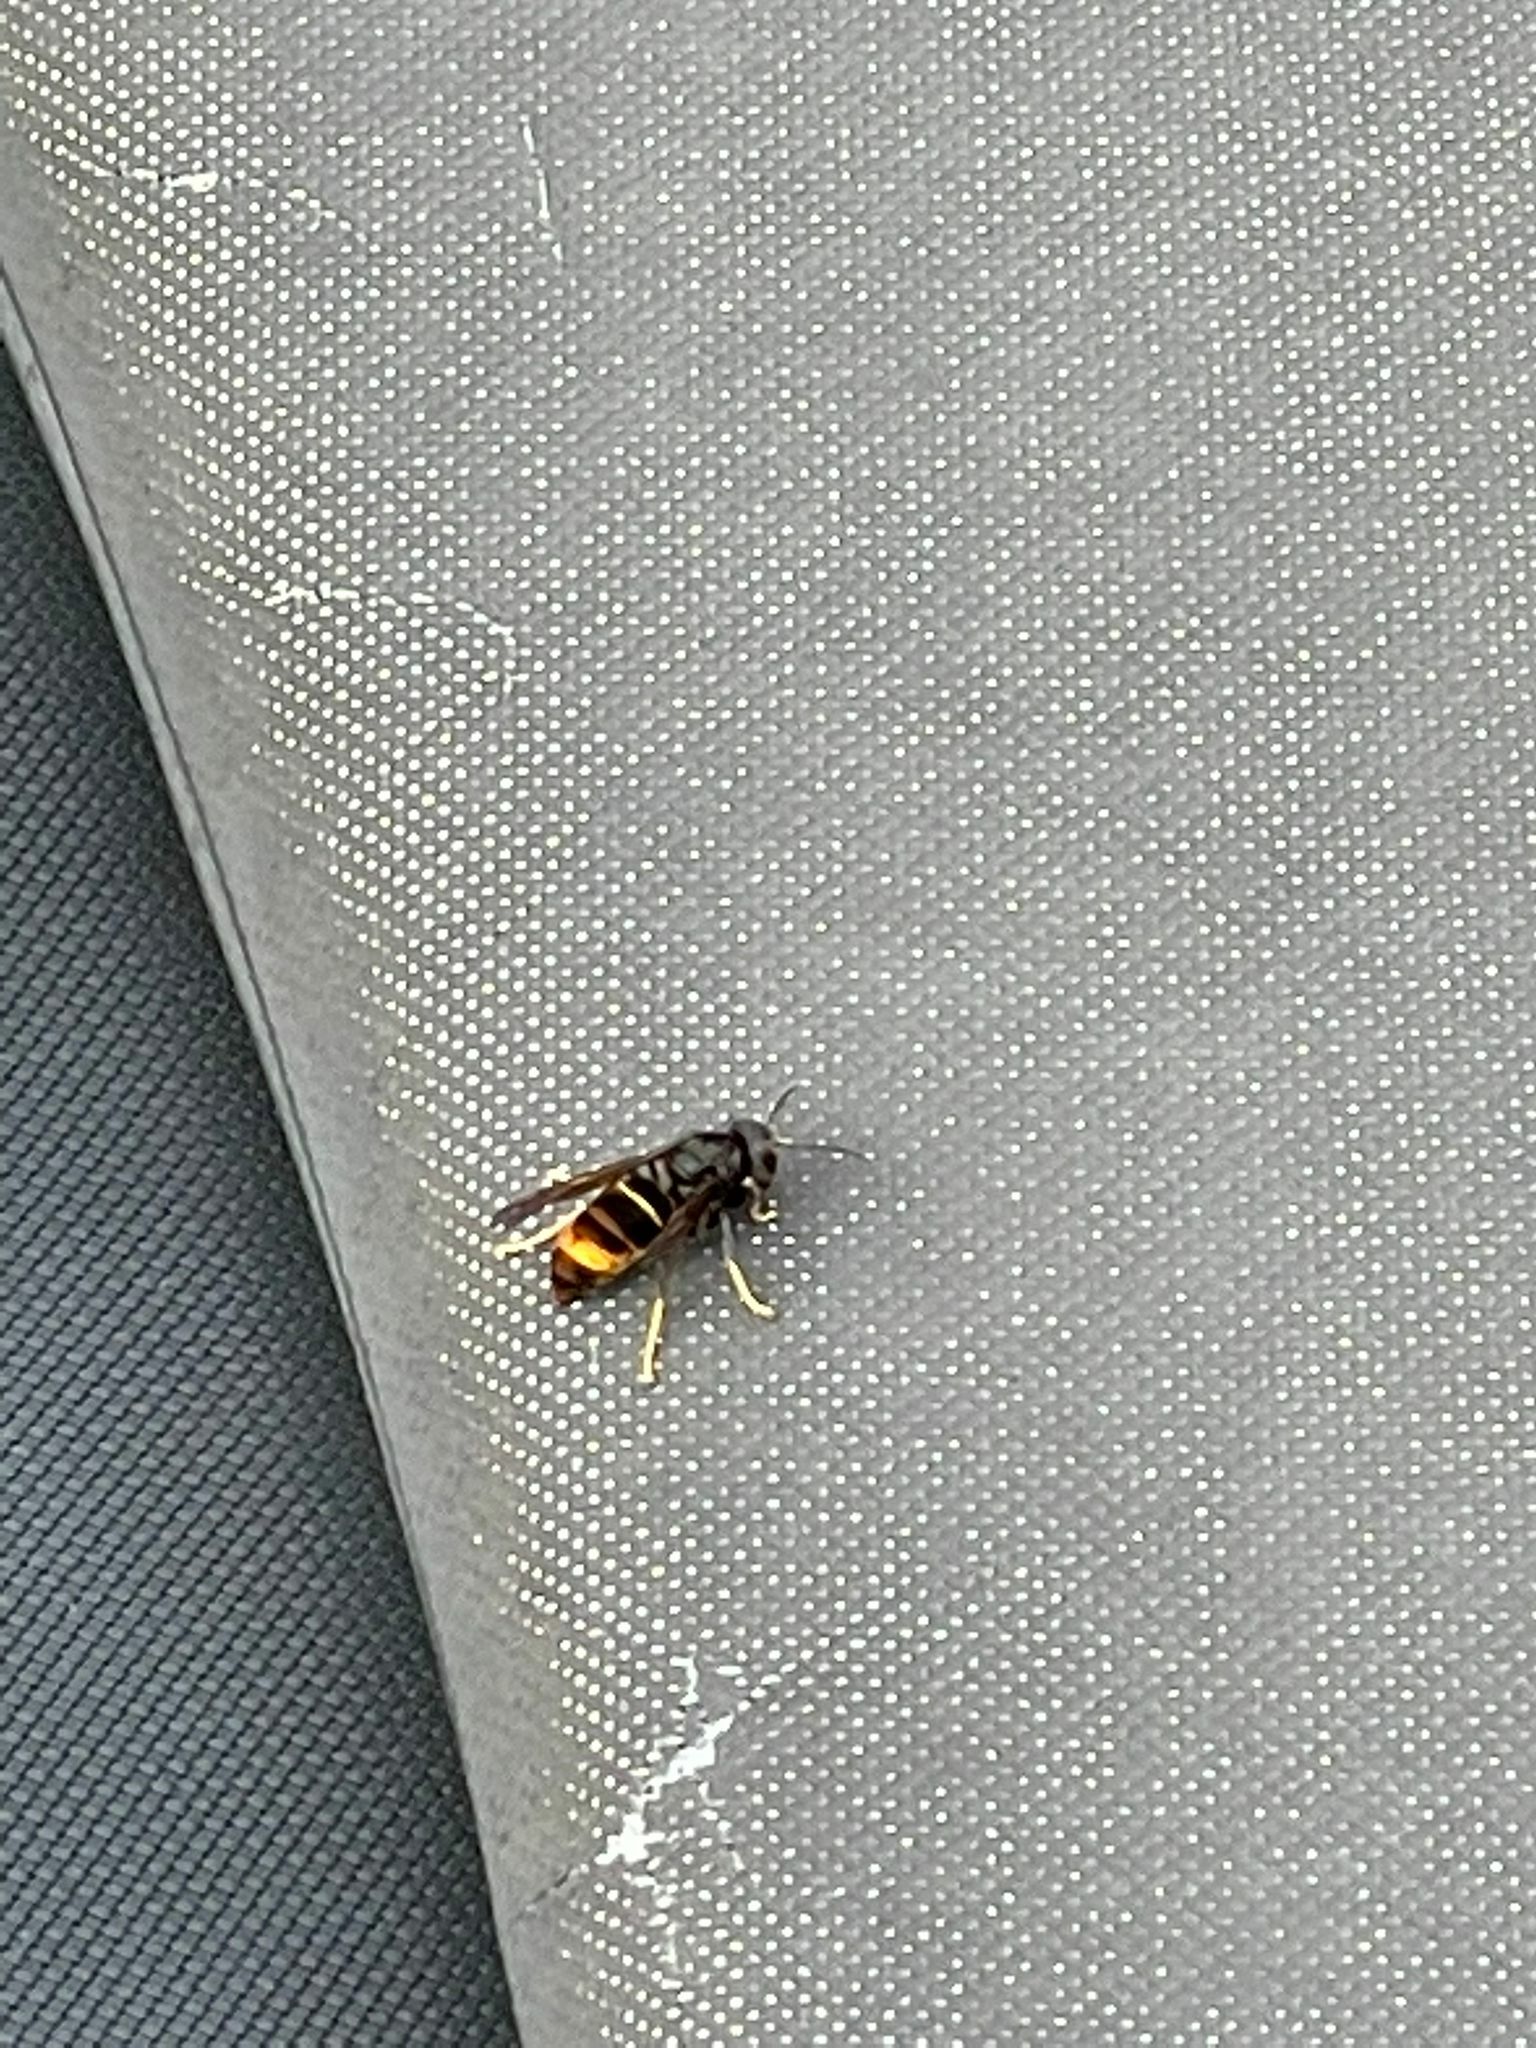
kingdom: Animalia
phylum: Arthropoda
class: Insecta
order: Hymenoptera
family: Vespidae
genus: Vespa
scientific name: Vespa velutina
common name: Asian hornet
